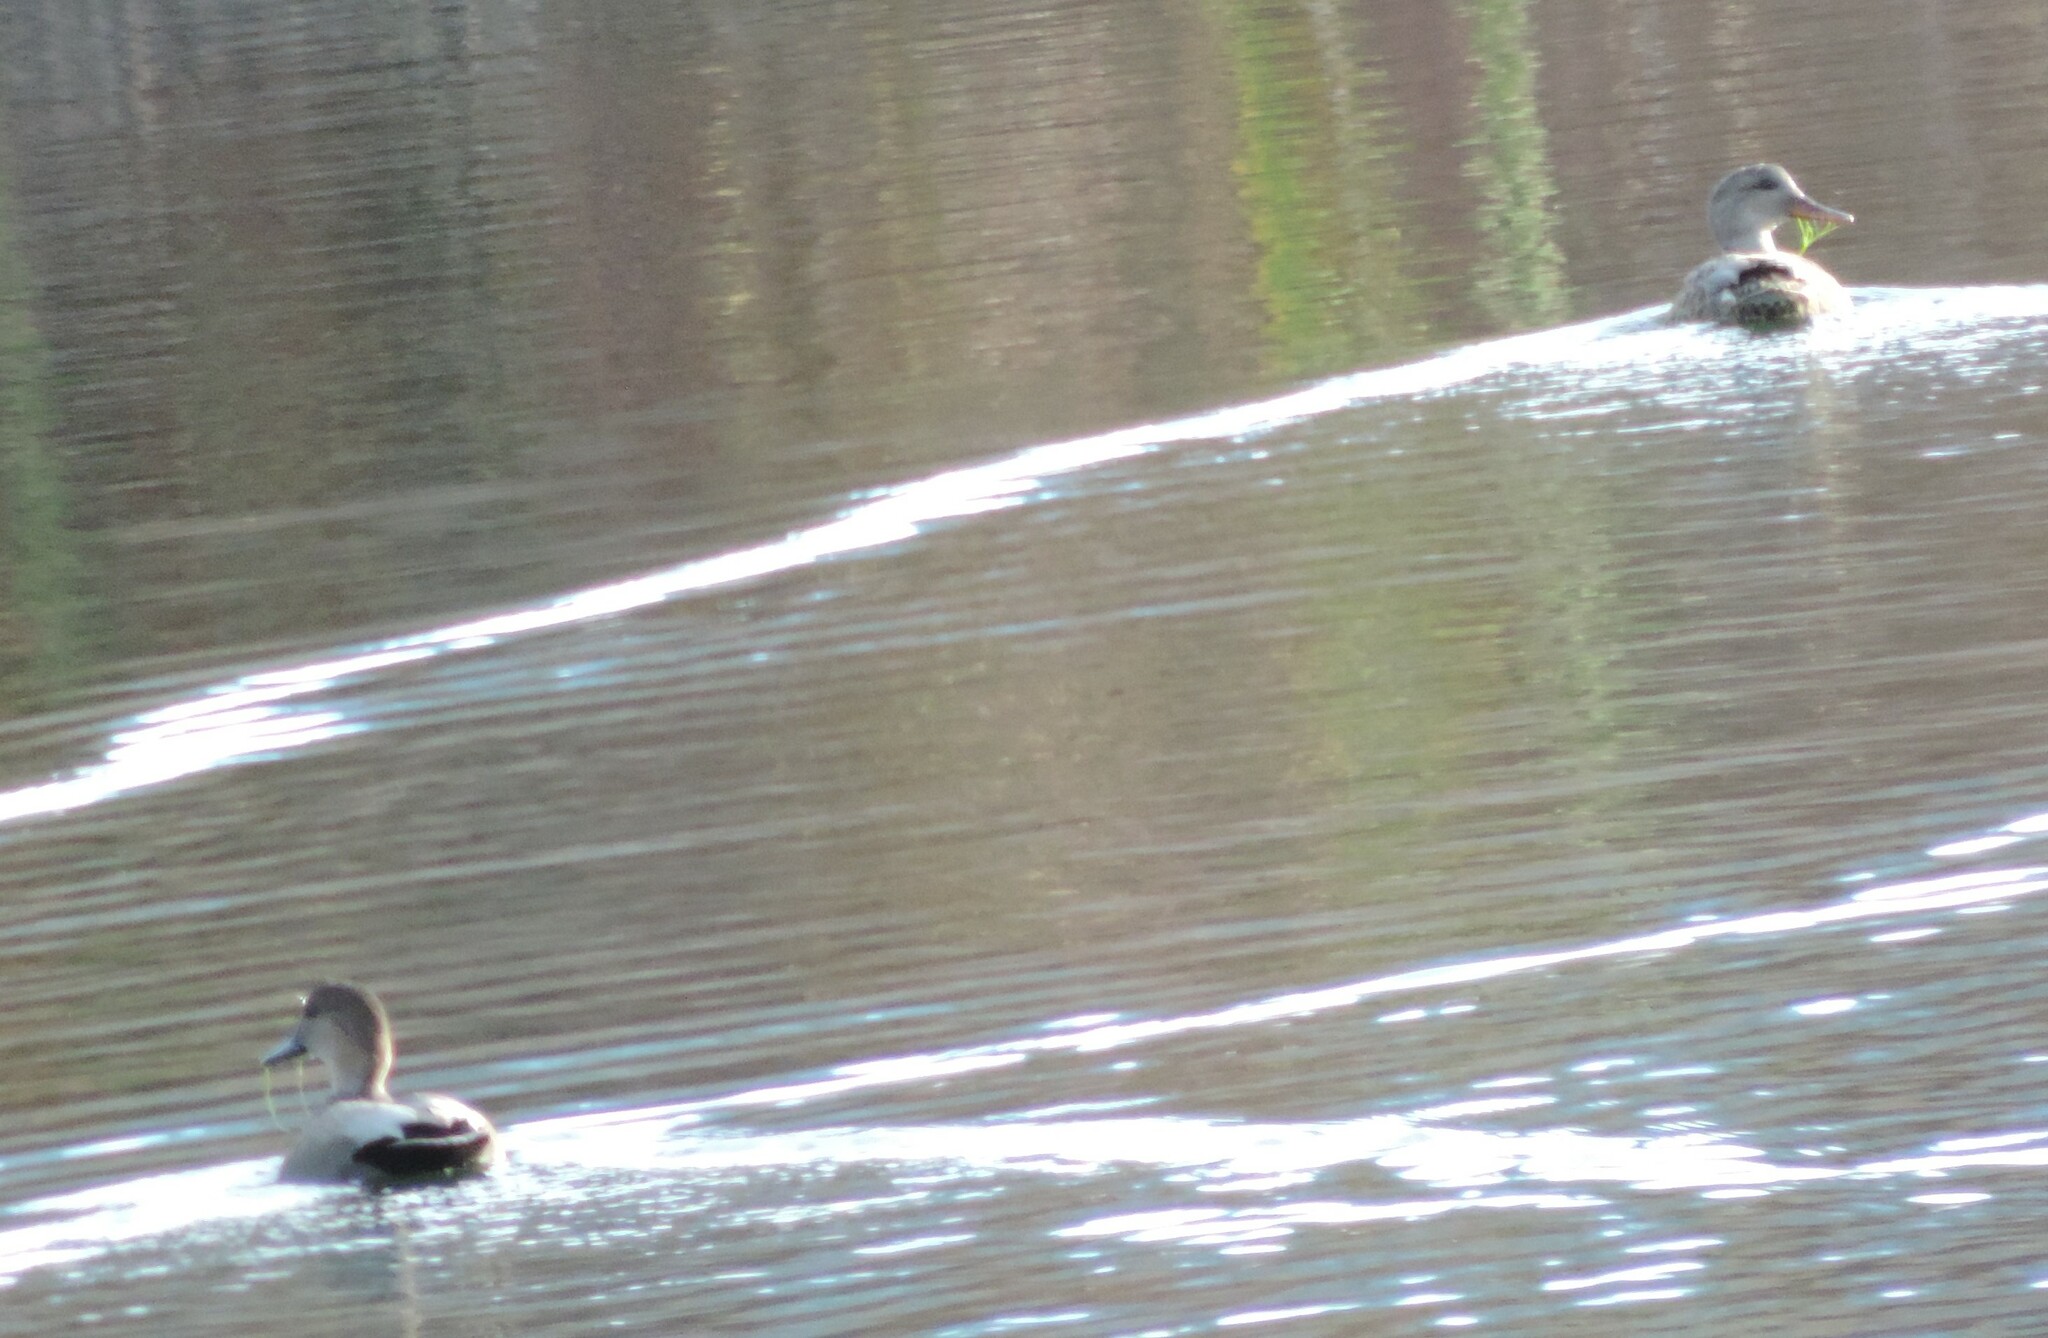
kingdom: Animalia
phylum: Chordata
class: Aves
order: Anseriformes
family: Anatidae
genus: Mareca
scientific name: Mareca strepera
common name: Gadwall
